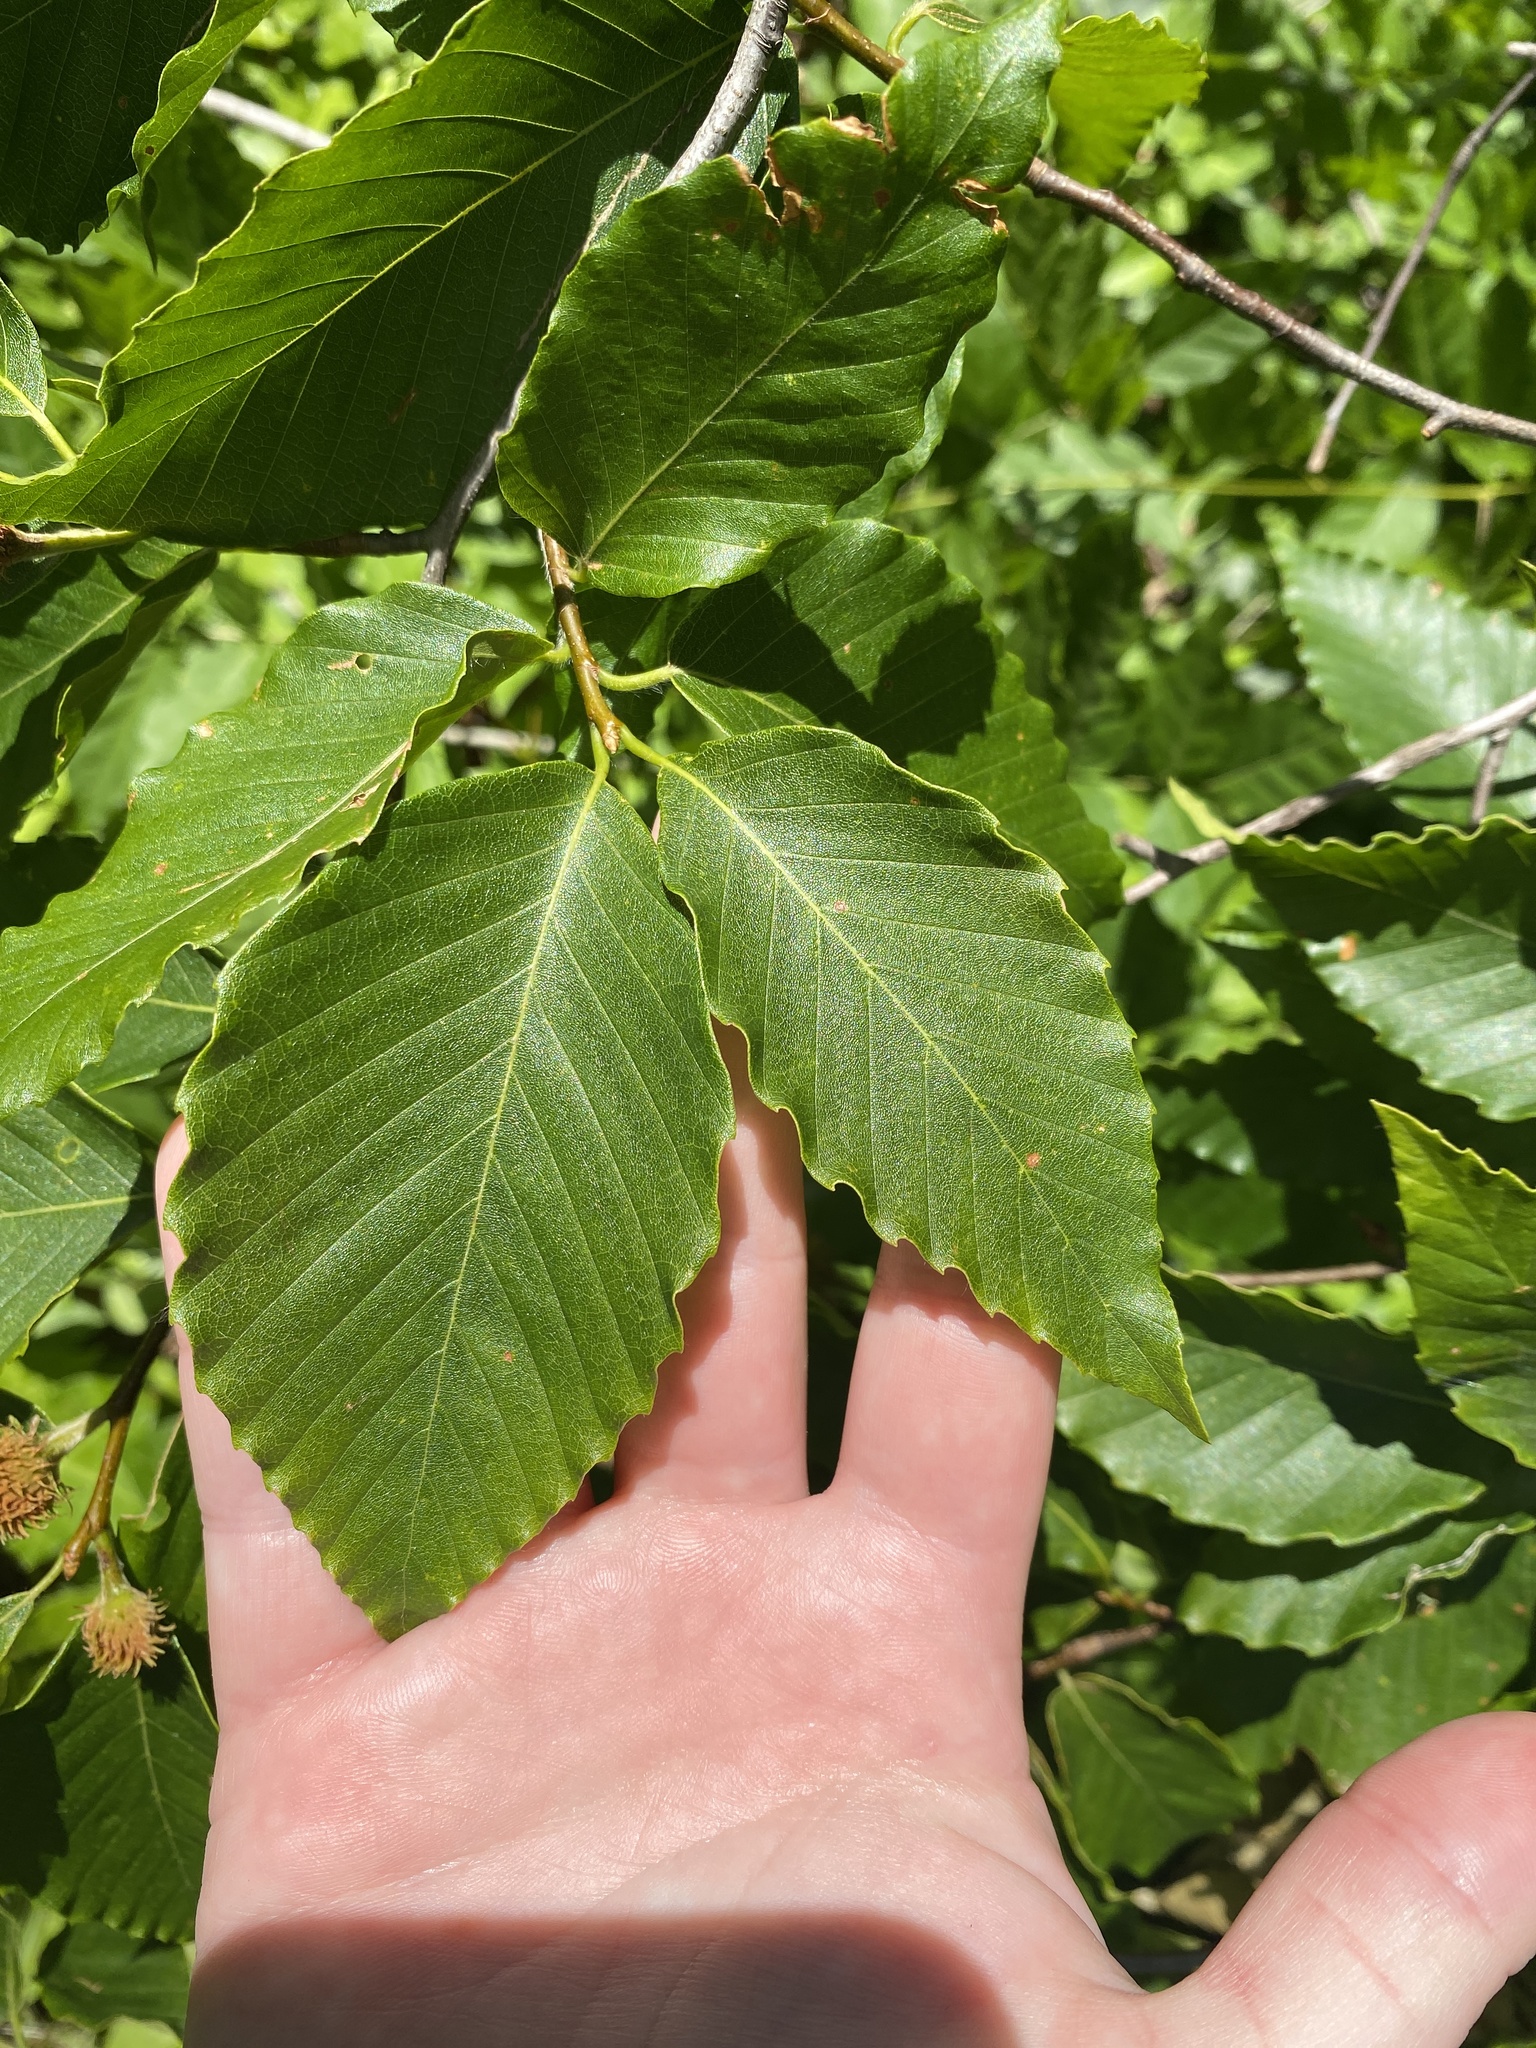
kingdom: Plantae
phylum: Tracheophyta
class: Magnoliopsida
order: Fagales
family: Fagaceae
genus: Fagus
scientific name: Fagus grandifolia
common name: American beech
